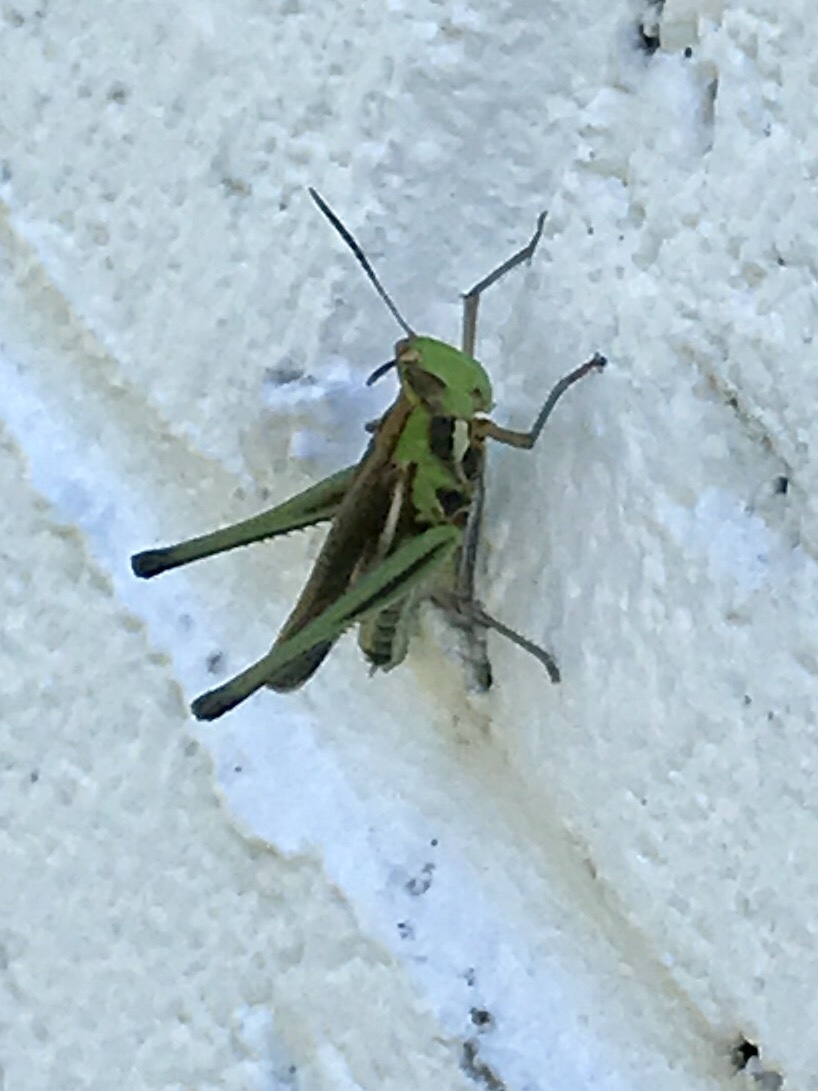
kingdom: Animalia
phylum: Arthropoda
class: Insecta
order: Orthoptera
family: Acrididae
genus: Syrbula
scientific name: Syrbula montezuma
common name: Montezuma's grasshopper
